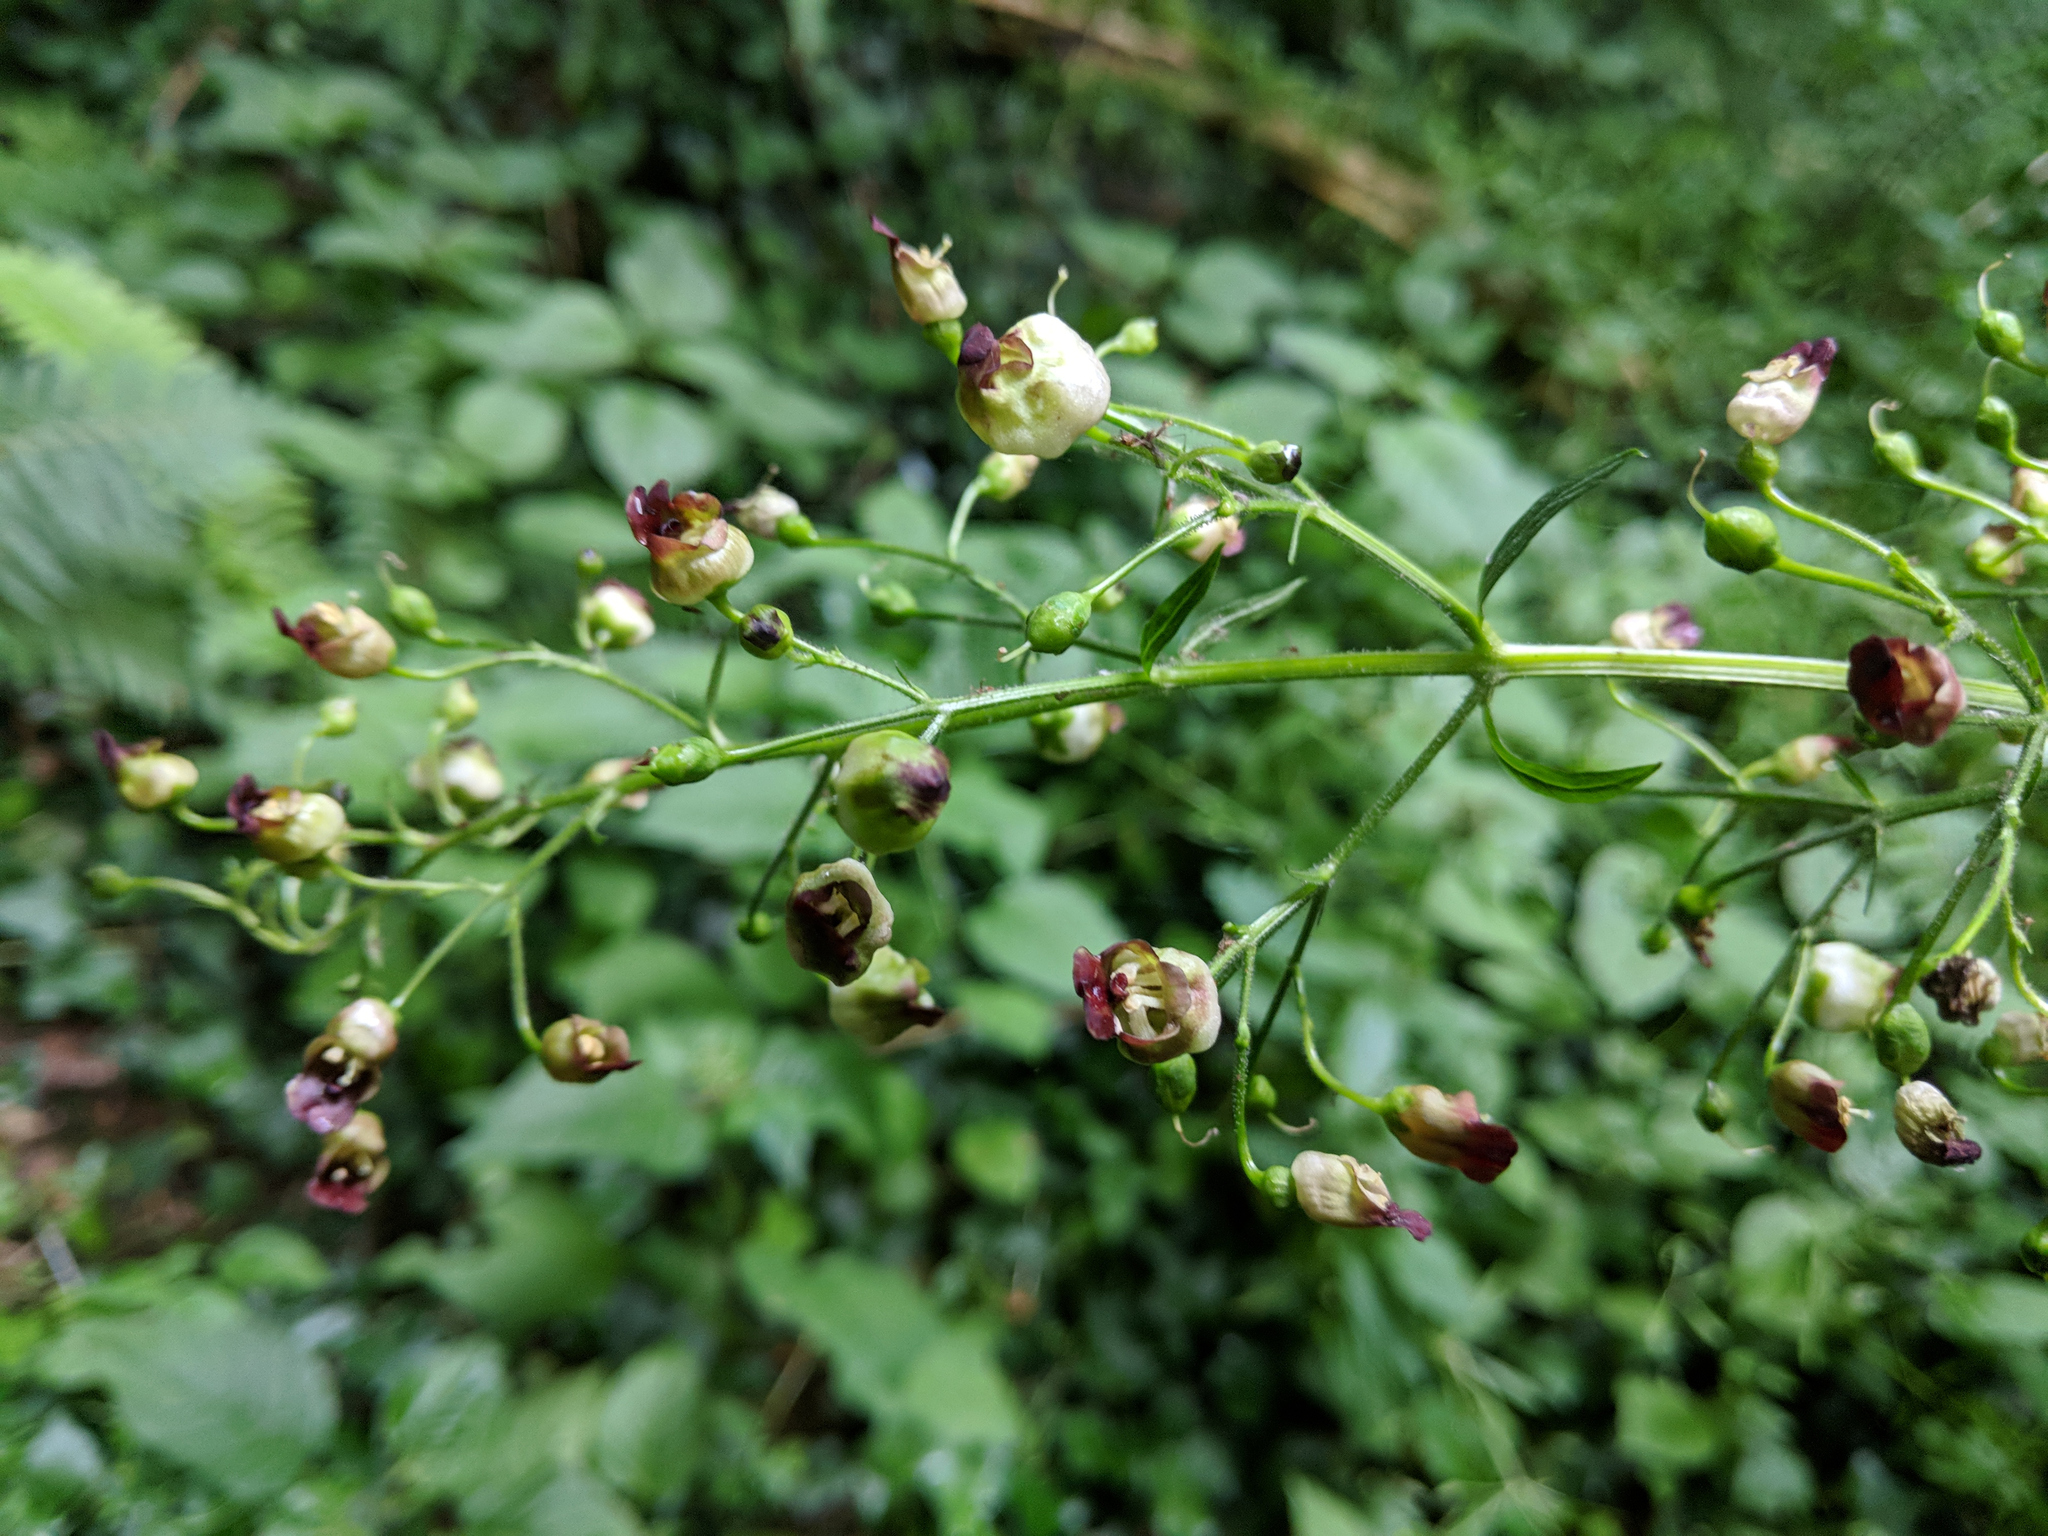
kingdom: Plantae
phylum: Tracheophyta
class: Magnoliopsida
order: Lamiales
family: Scrophulariaceae
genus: Scrophularia
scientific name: Scrophularia nodosa
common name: Common figwort
